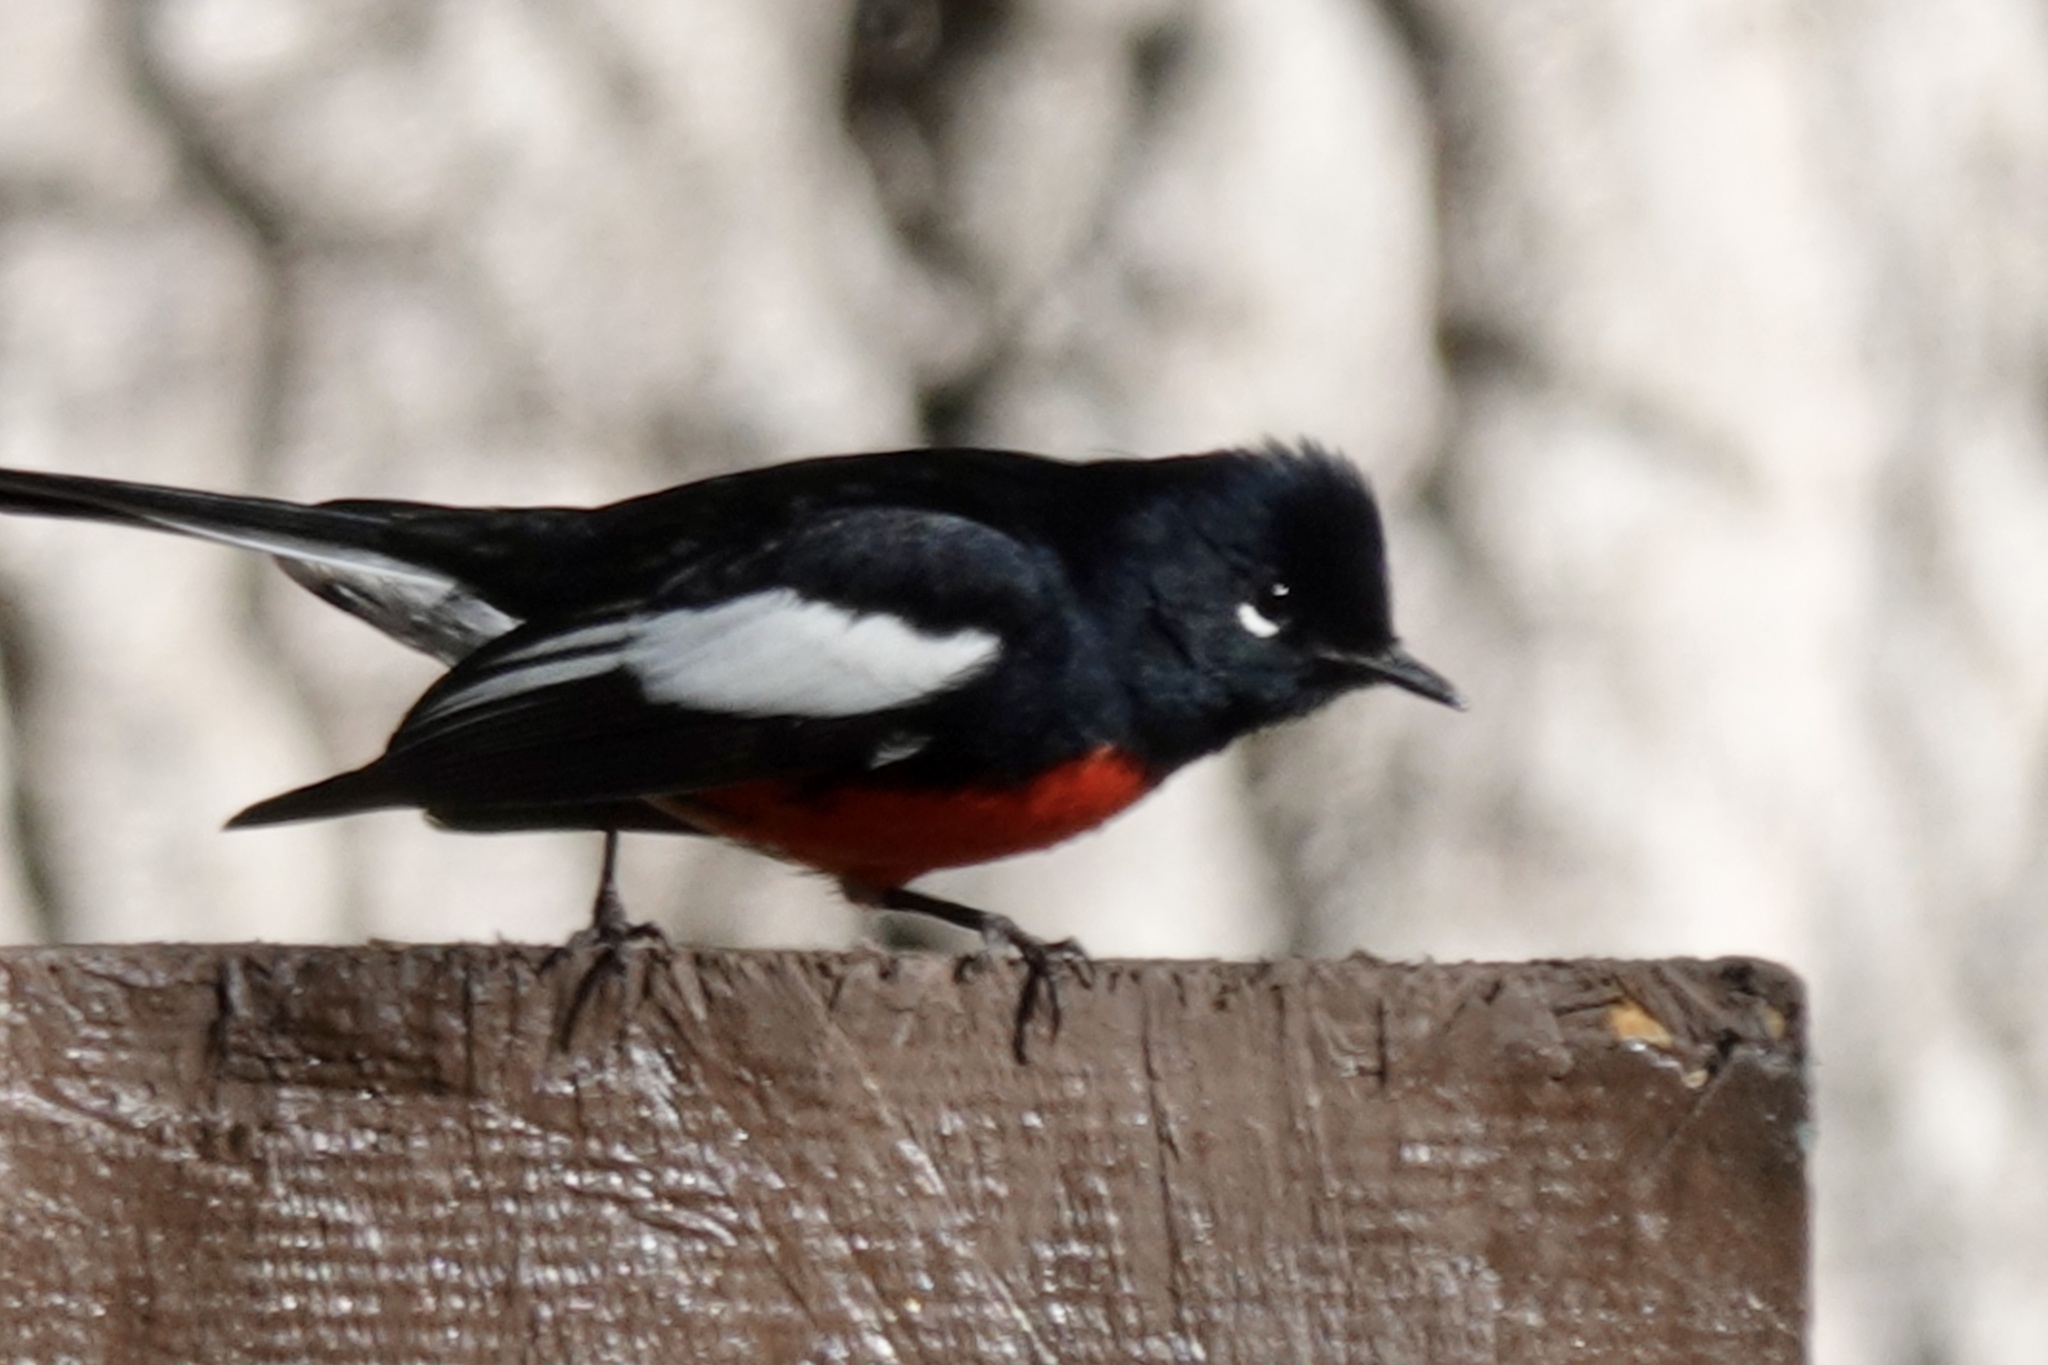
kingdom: Animalia
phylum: Chordata
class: Aves
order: Passeriformes
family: Parulidae
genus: Myioborus
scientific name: Myioborus pictus
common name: Painted whitestart
